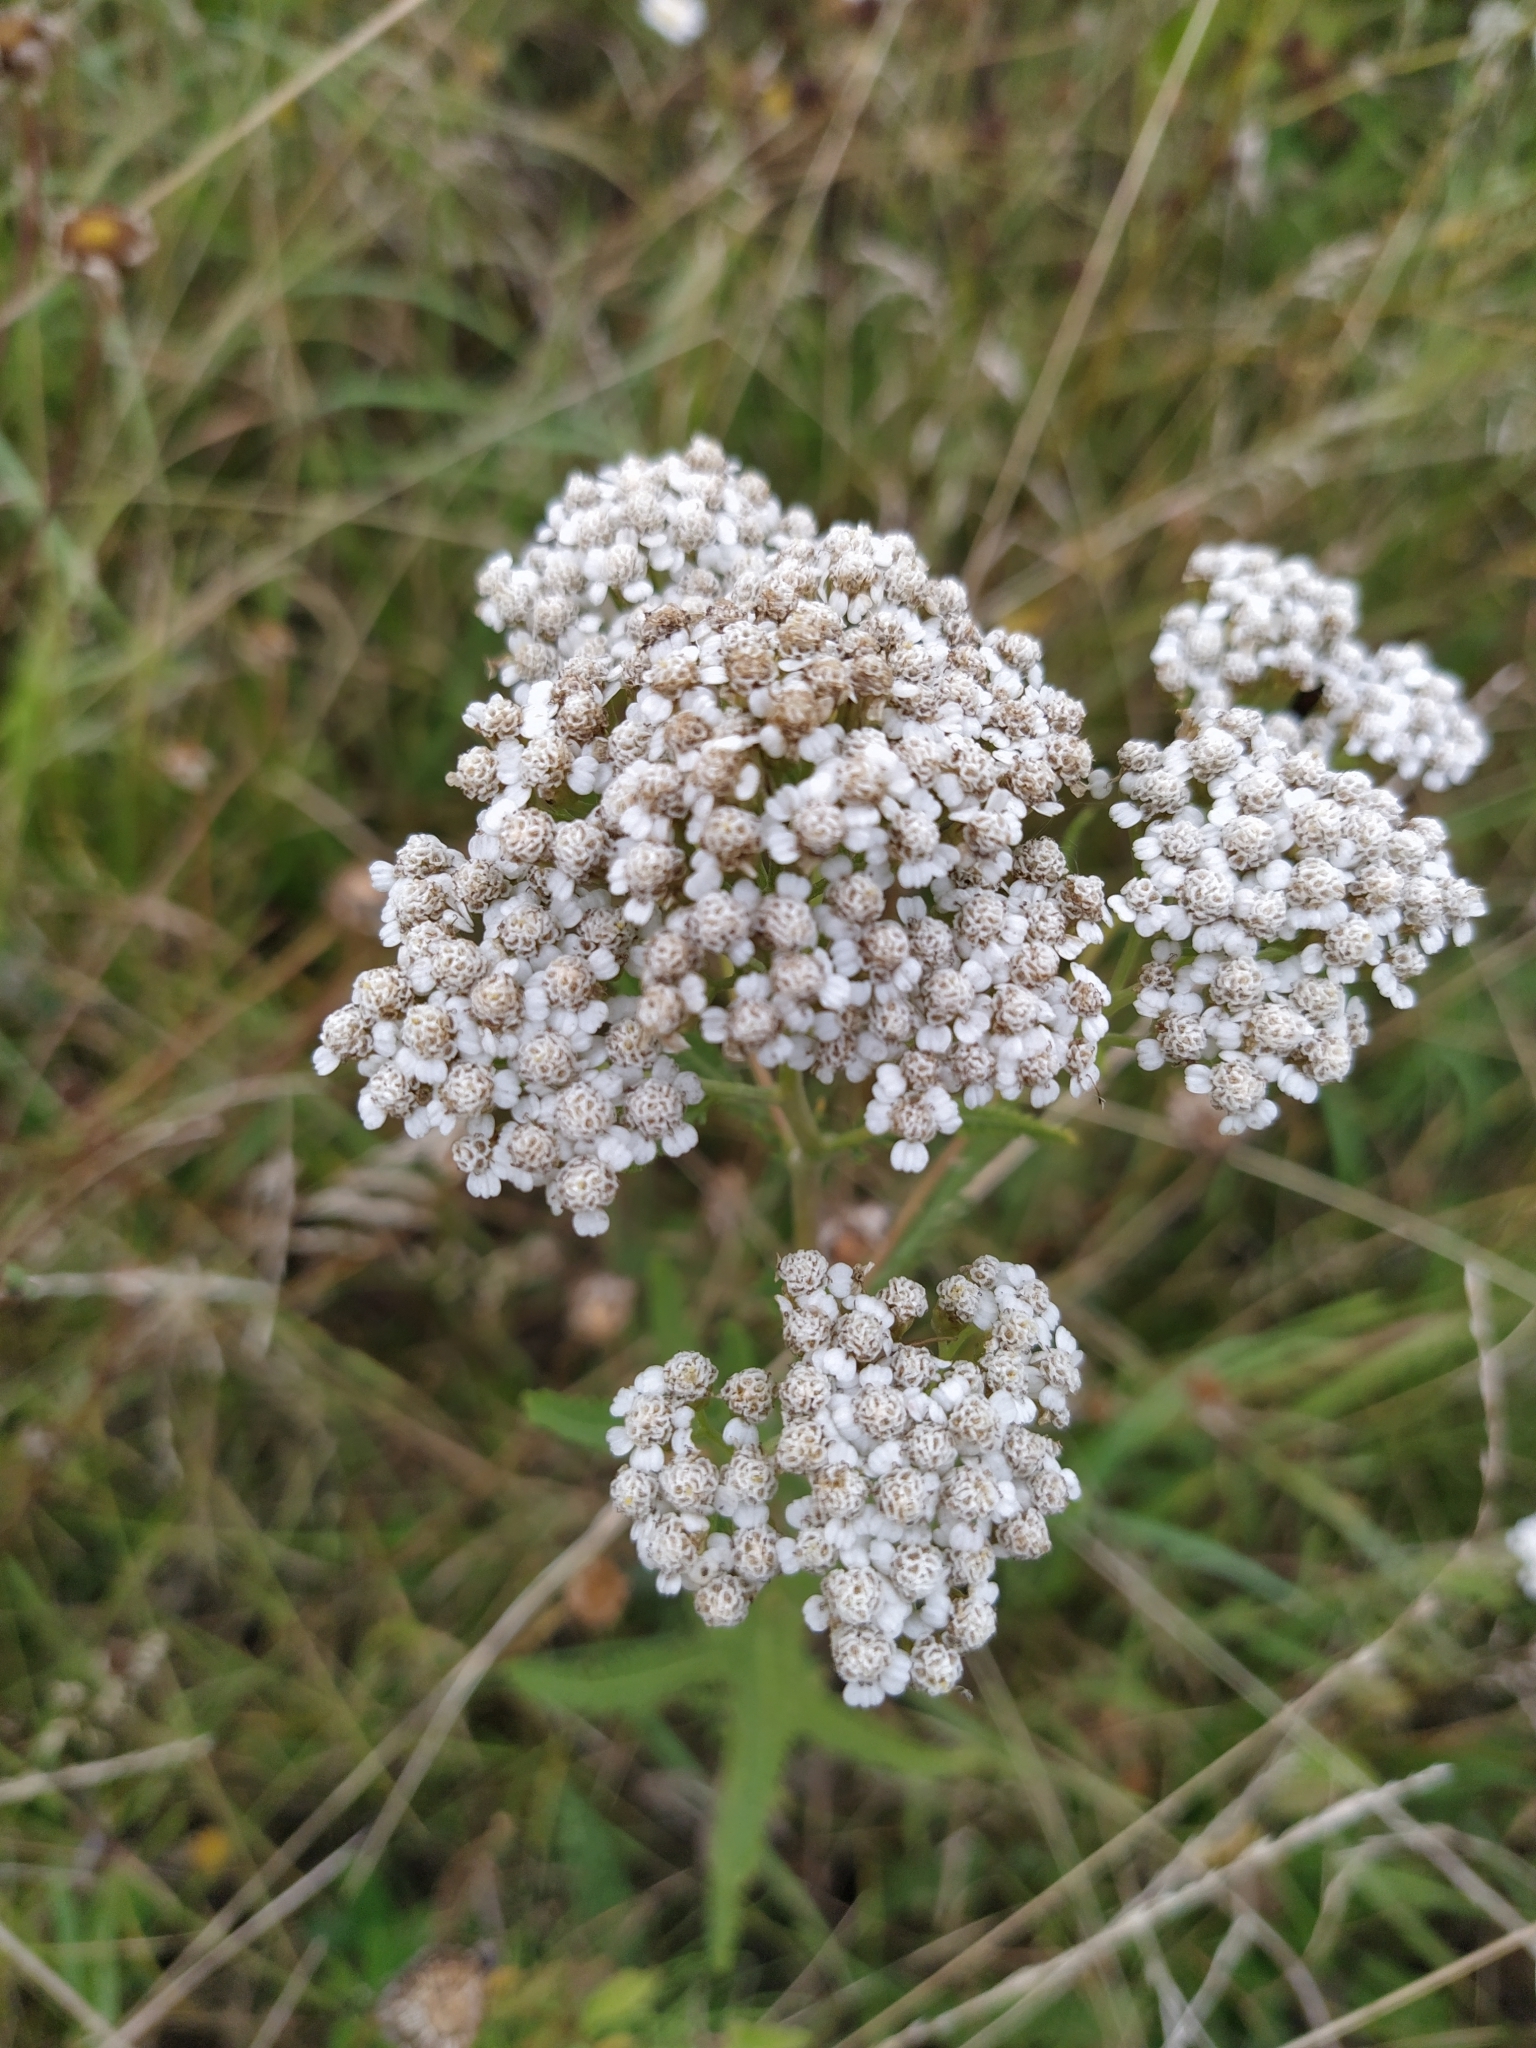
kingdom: Plantae
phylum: Tracheophyta
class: Magnoliopsida
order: Asterales
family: Asteraceae
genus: Achillea
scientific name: Achillea millefolium
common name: Yarrow
